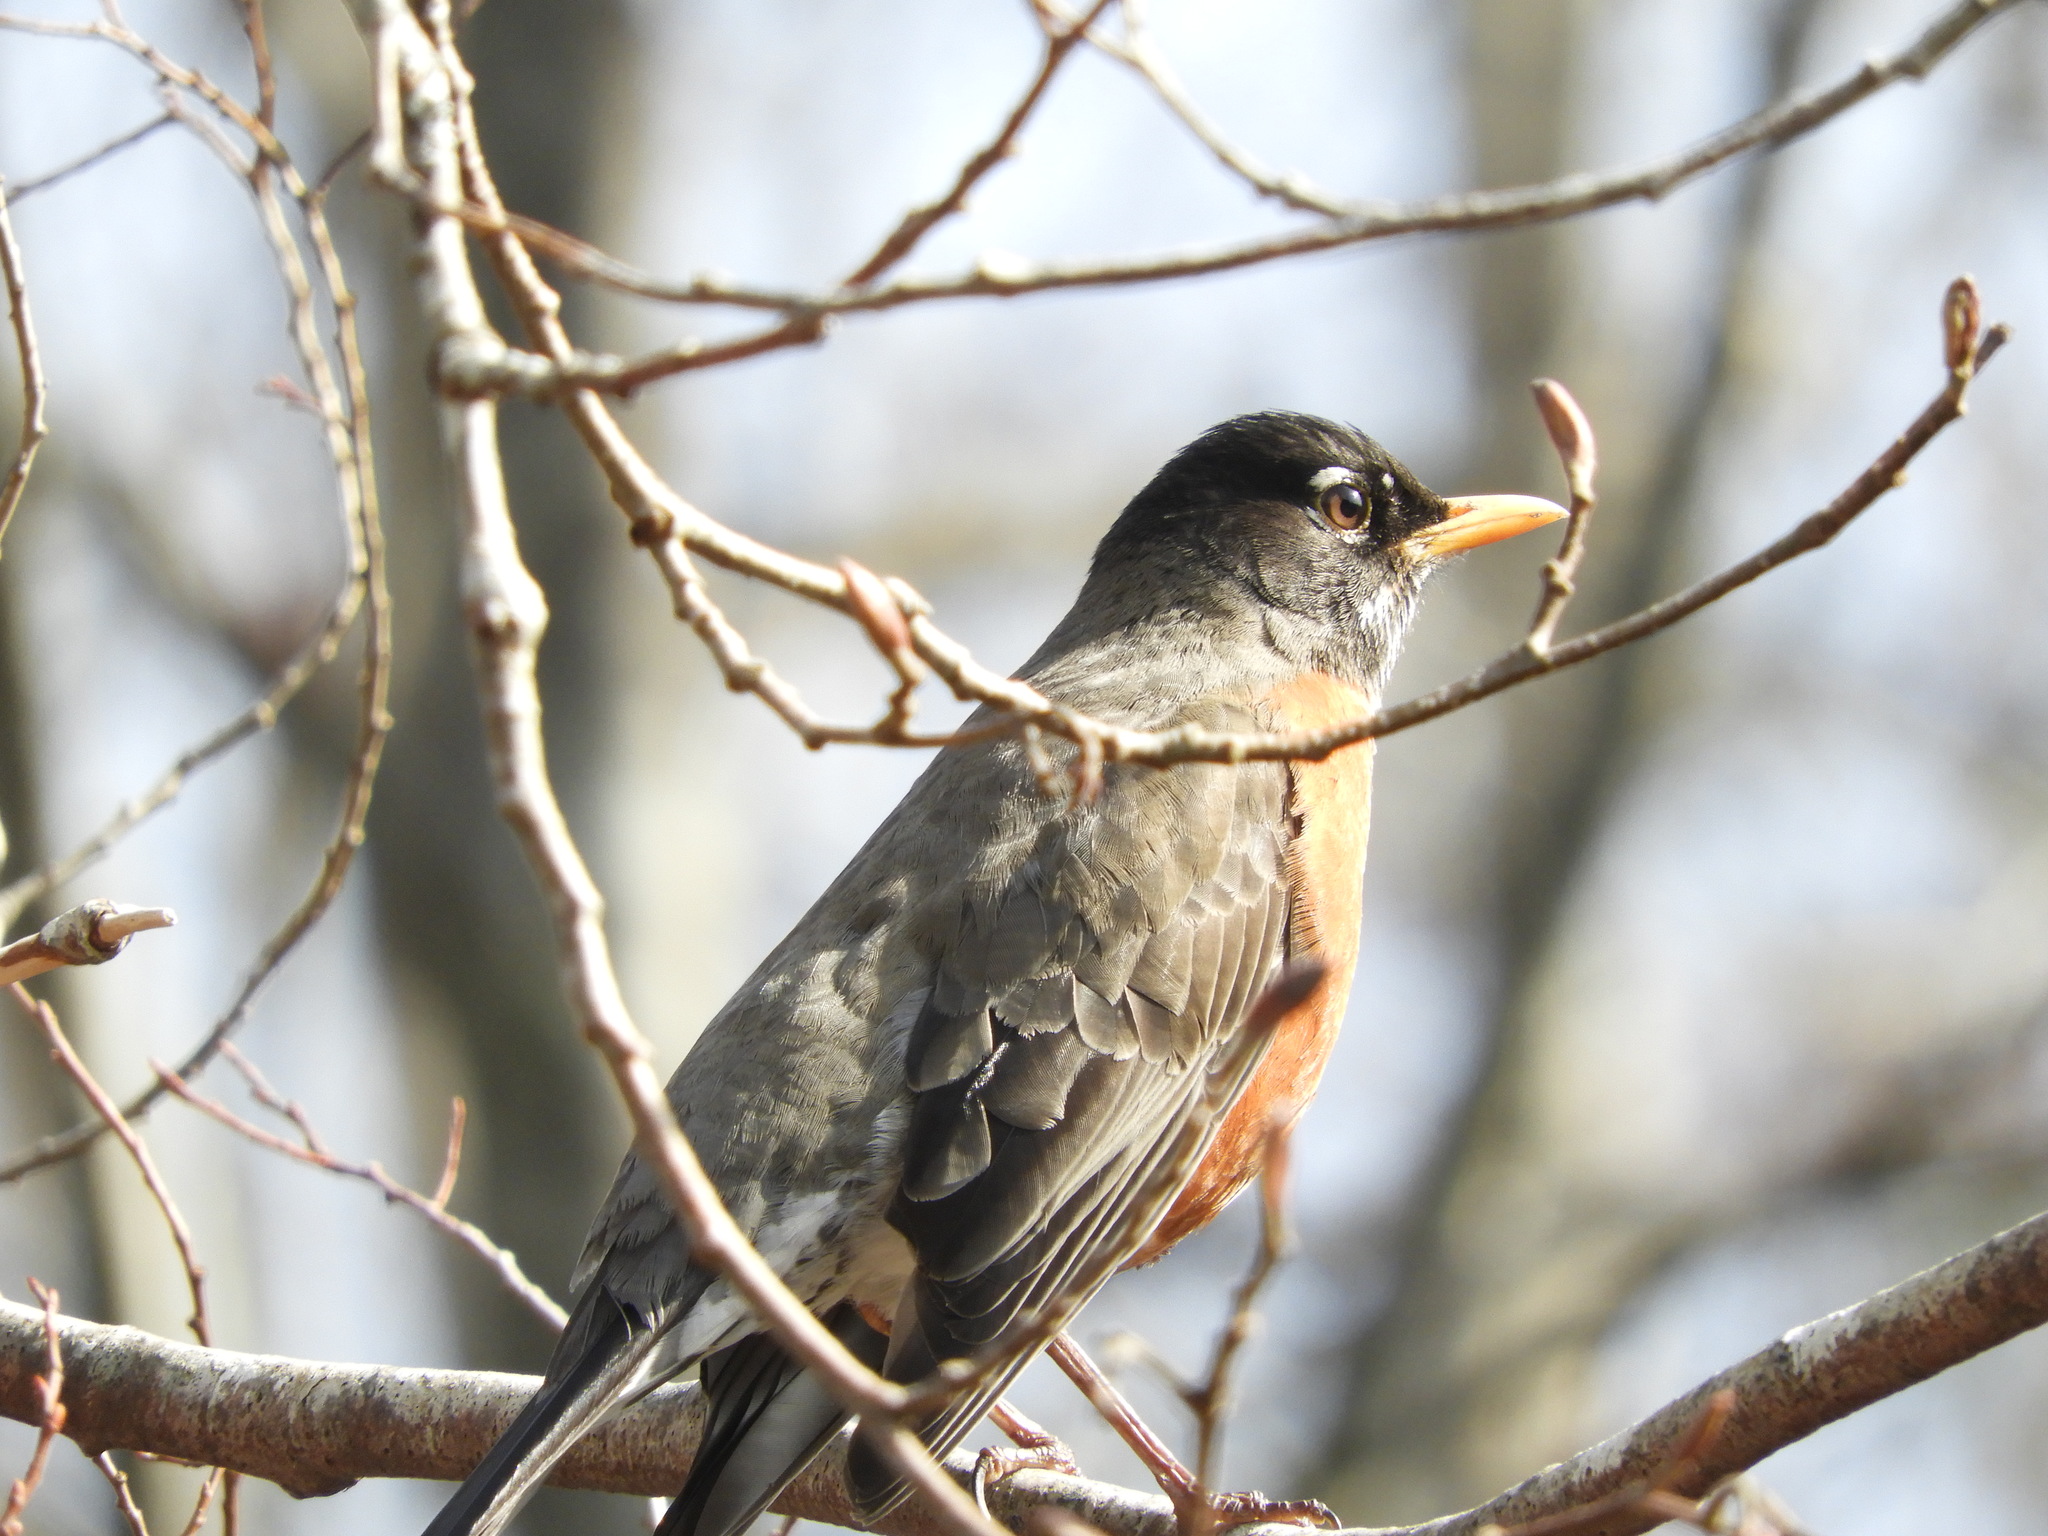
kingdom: Animalia
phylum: Chordata
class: Aves
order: Passeriformes
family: Turdidae
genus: Turdus
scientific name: Turdus migratorius
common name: American robin
